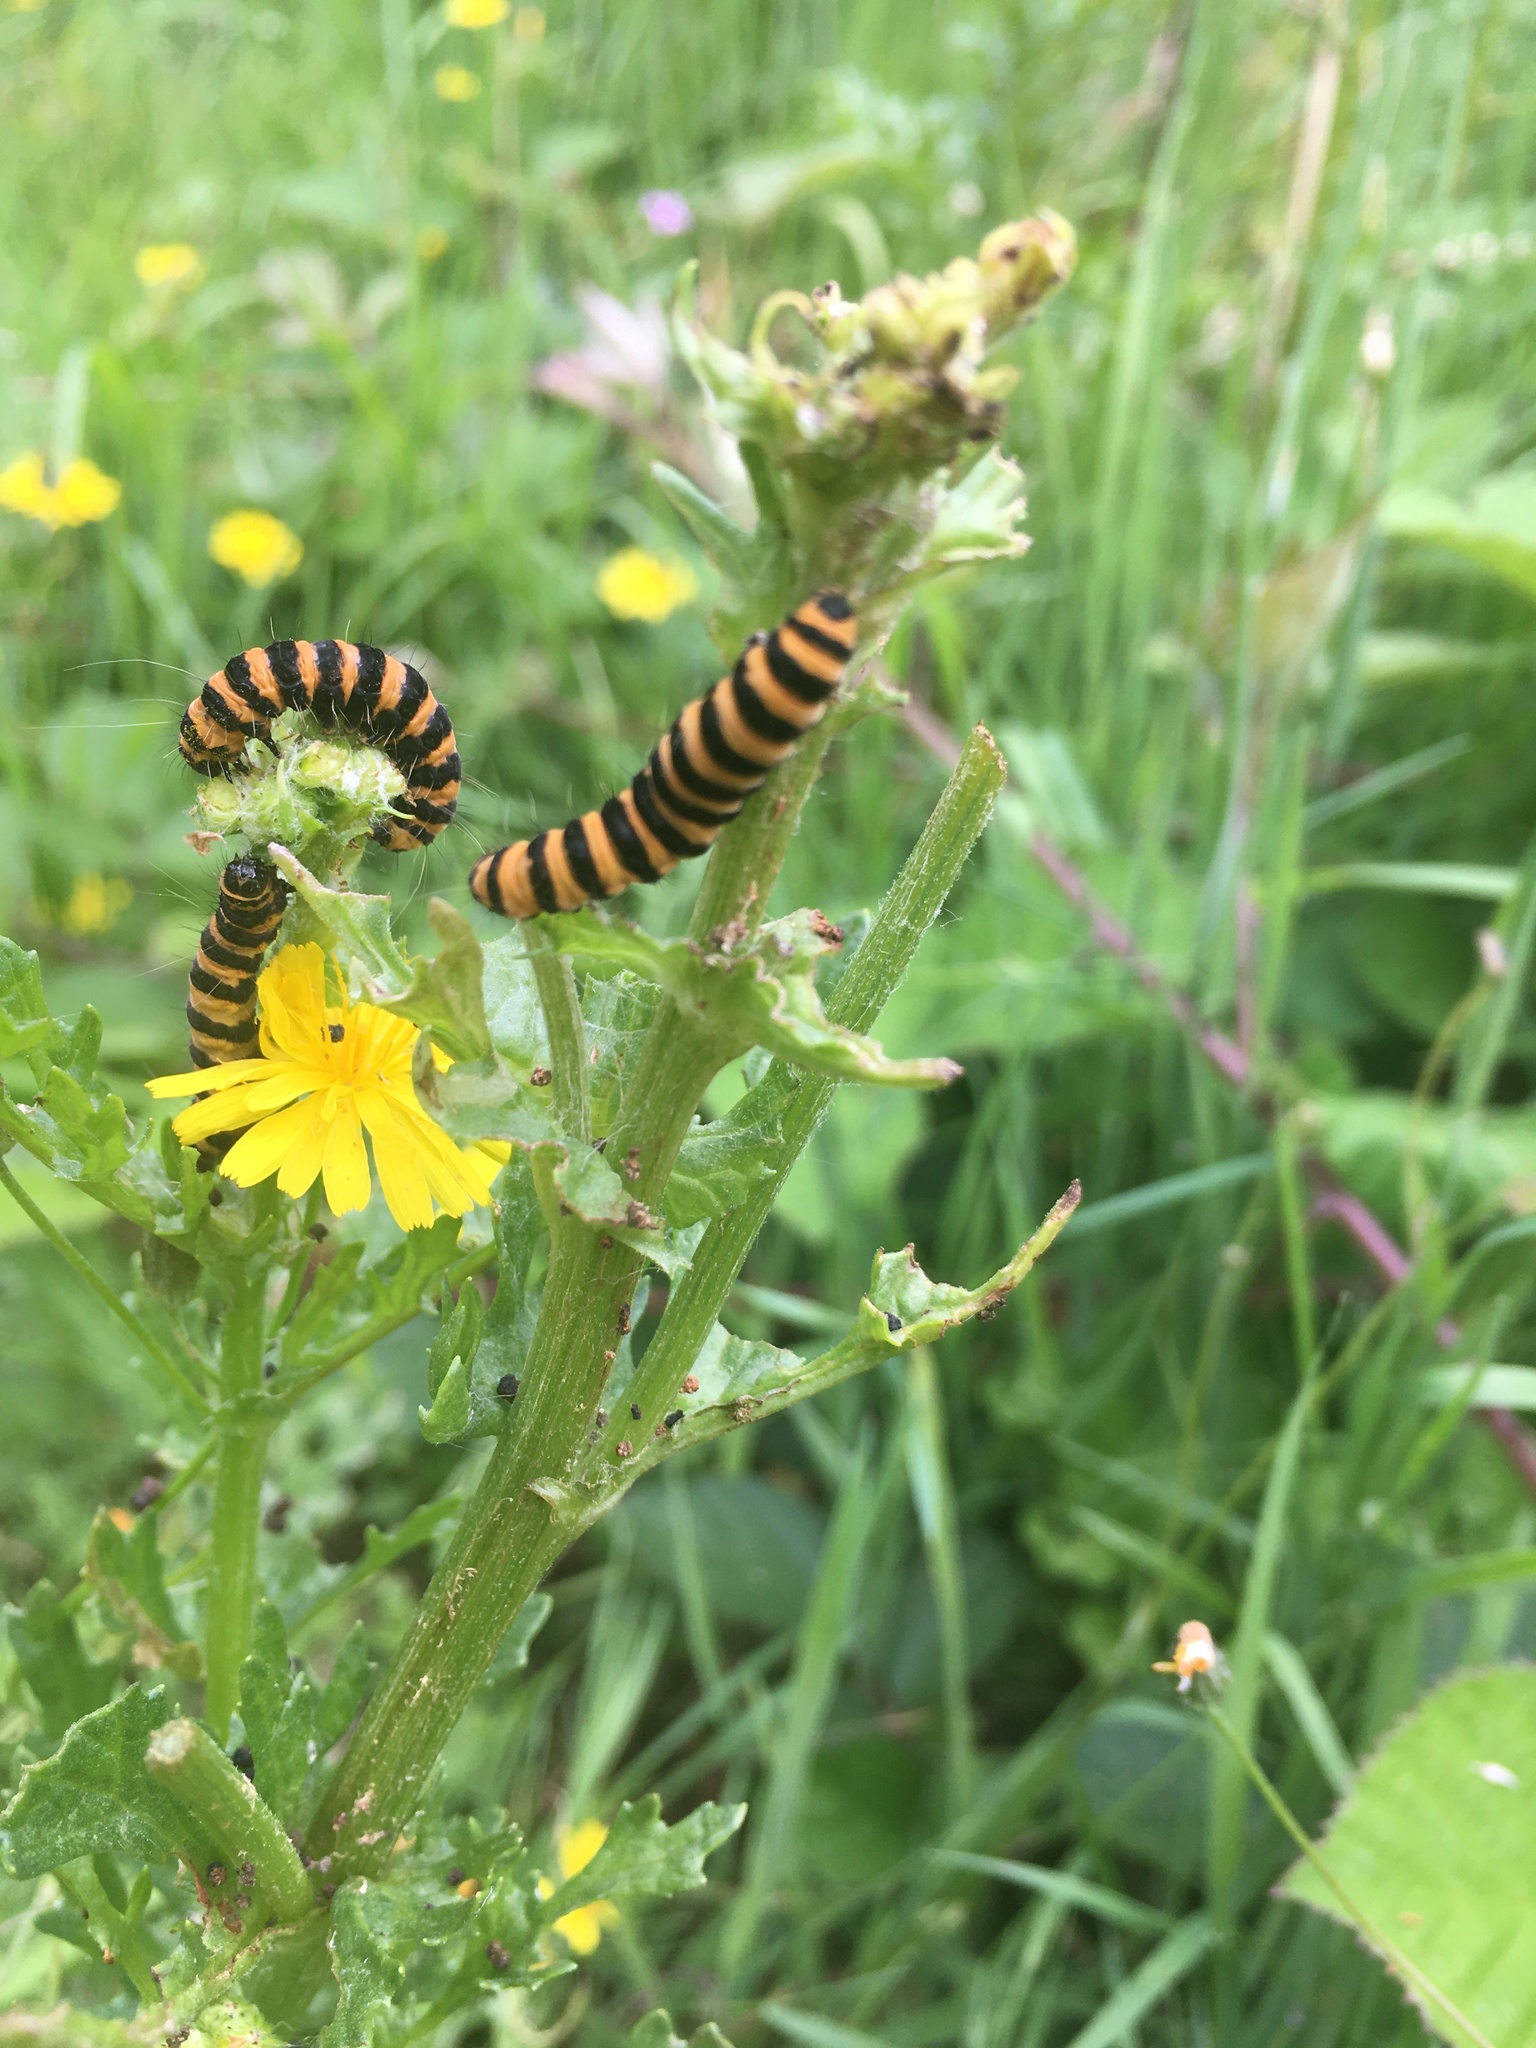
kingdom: Animalia
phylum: Arthropoda
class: Insecta
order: Lepidoptera
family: Erebidae
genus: Tyria
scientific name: Tyria jacobaeae
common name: Cinnabar
